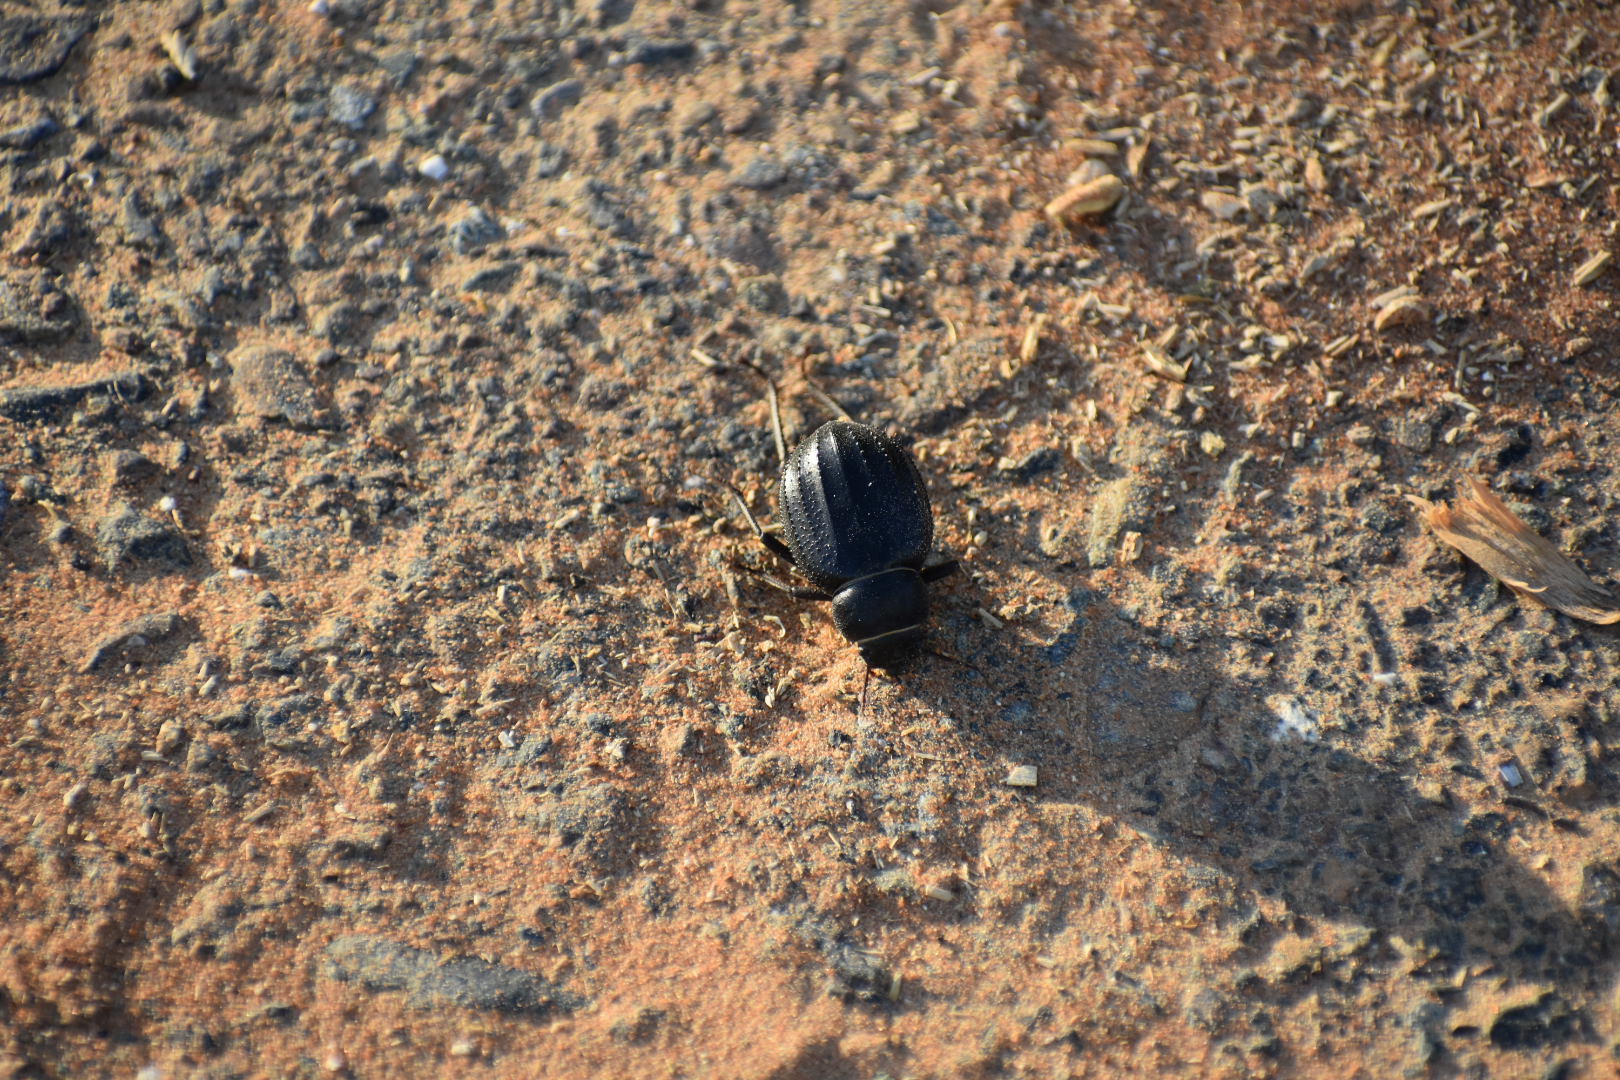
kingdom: Animalia
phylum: Arthropoda
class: Insecta
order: Coleoptera
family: Tenebrionidae
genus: Pimelia
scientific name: Pimelia arabica
